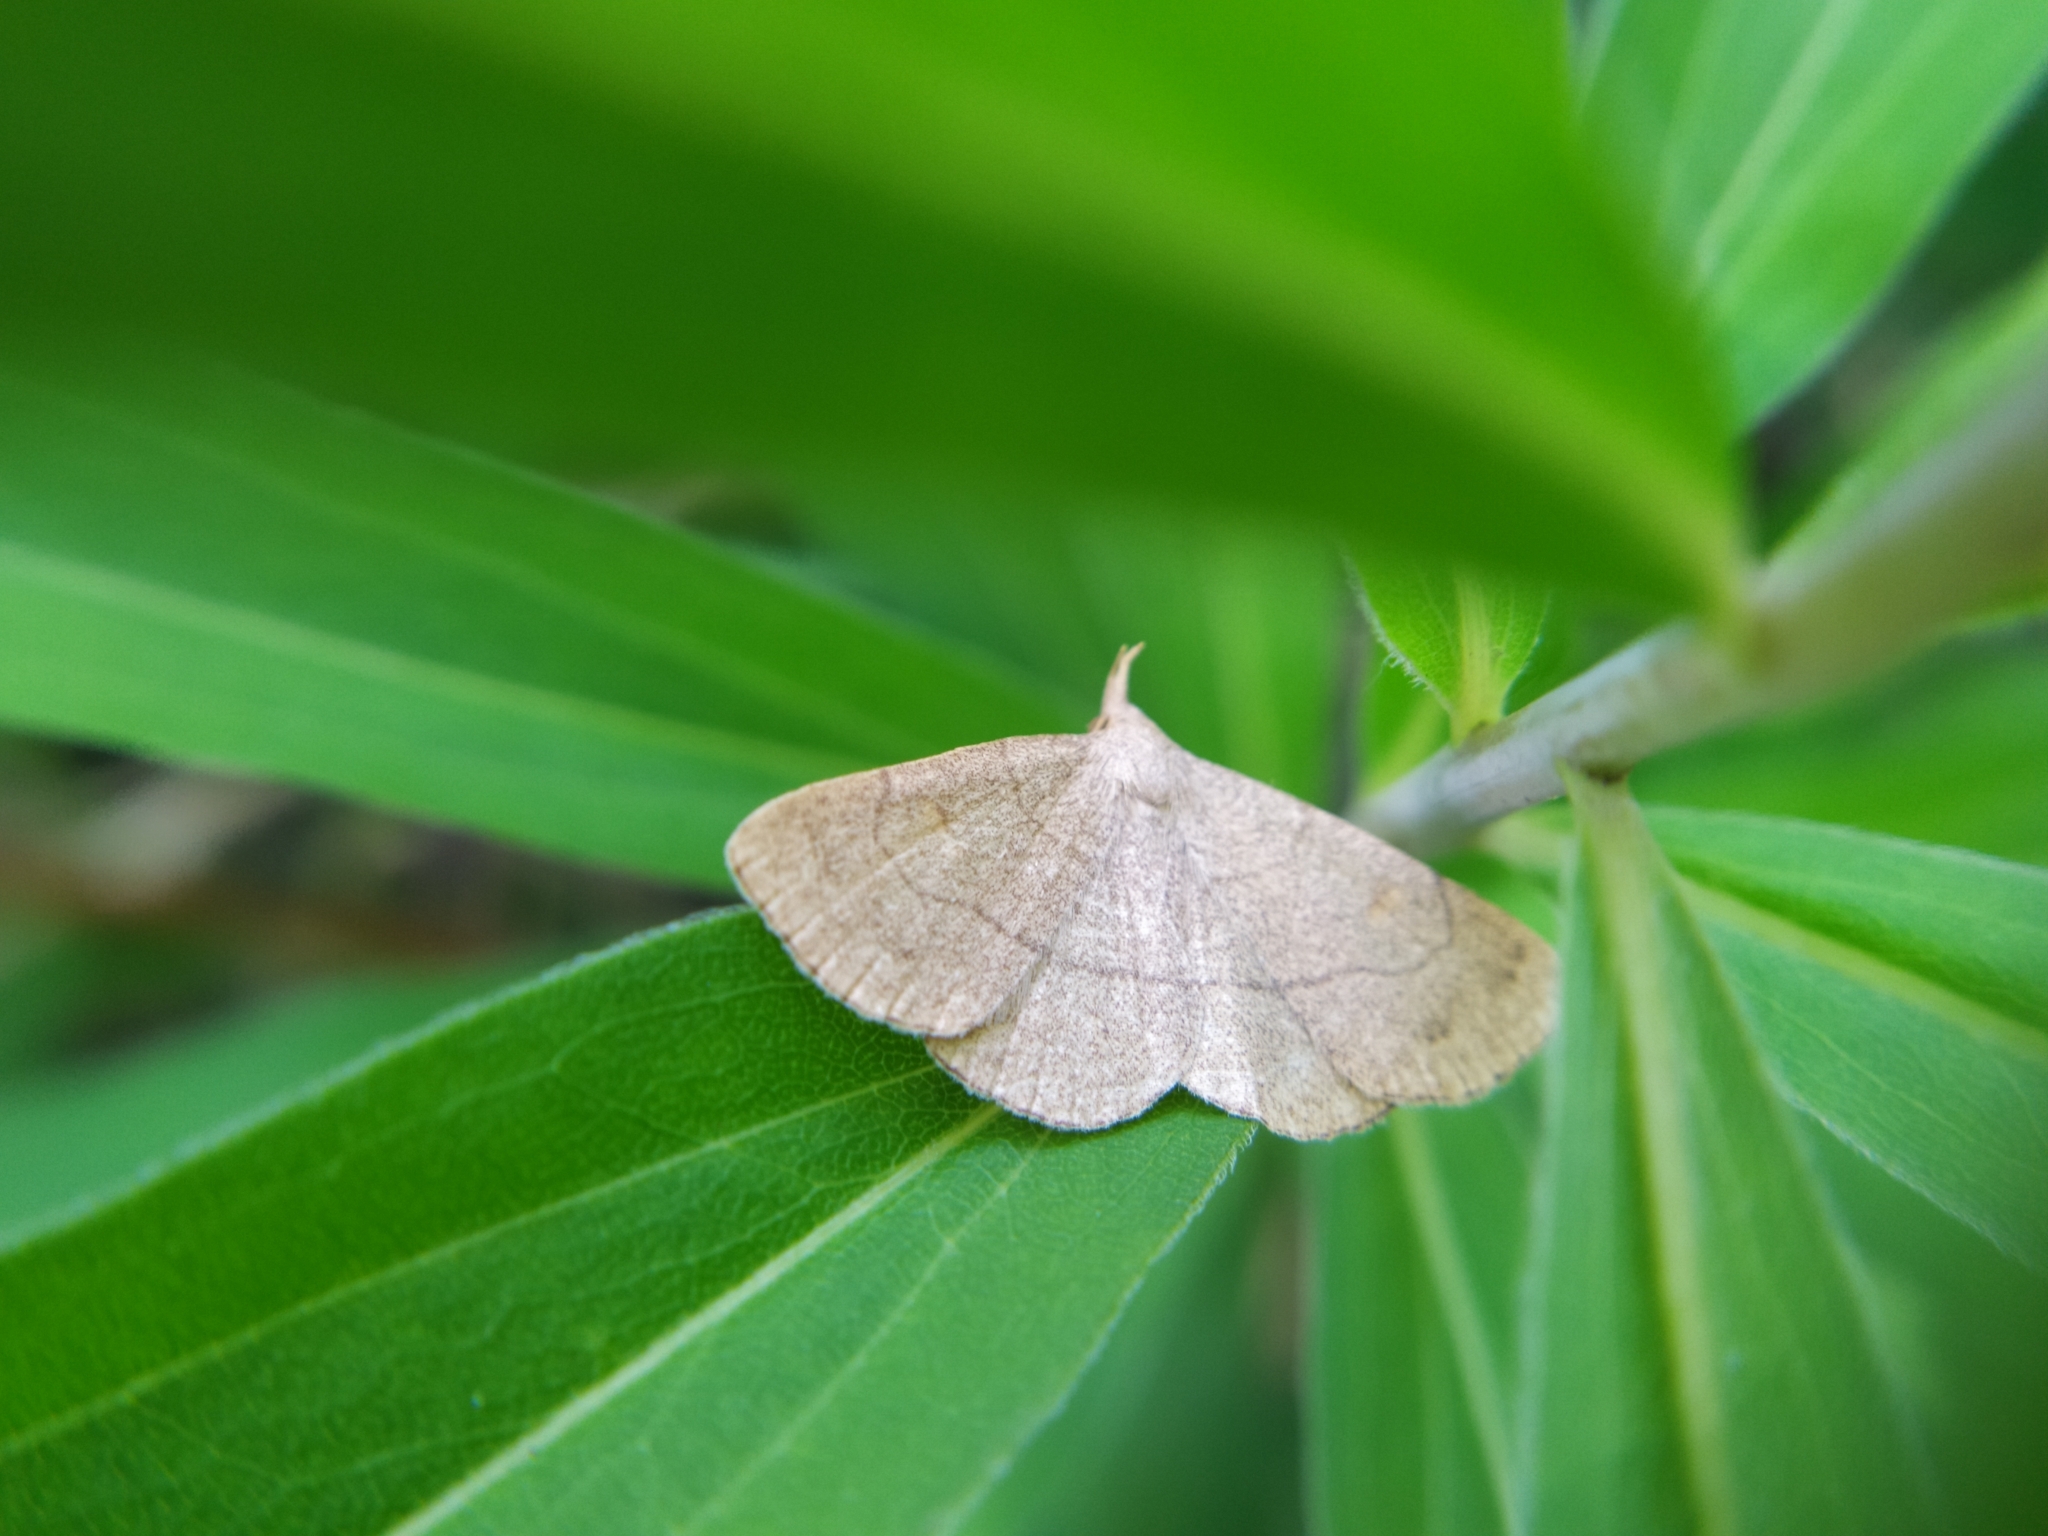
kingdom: Animalia
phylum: Arthropoda
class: Insecta
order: Lepidoptera
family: Erebidae
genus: Paracolax
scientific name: Paracolax tristalis
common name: Clay fan-foot
